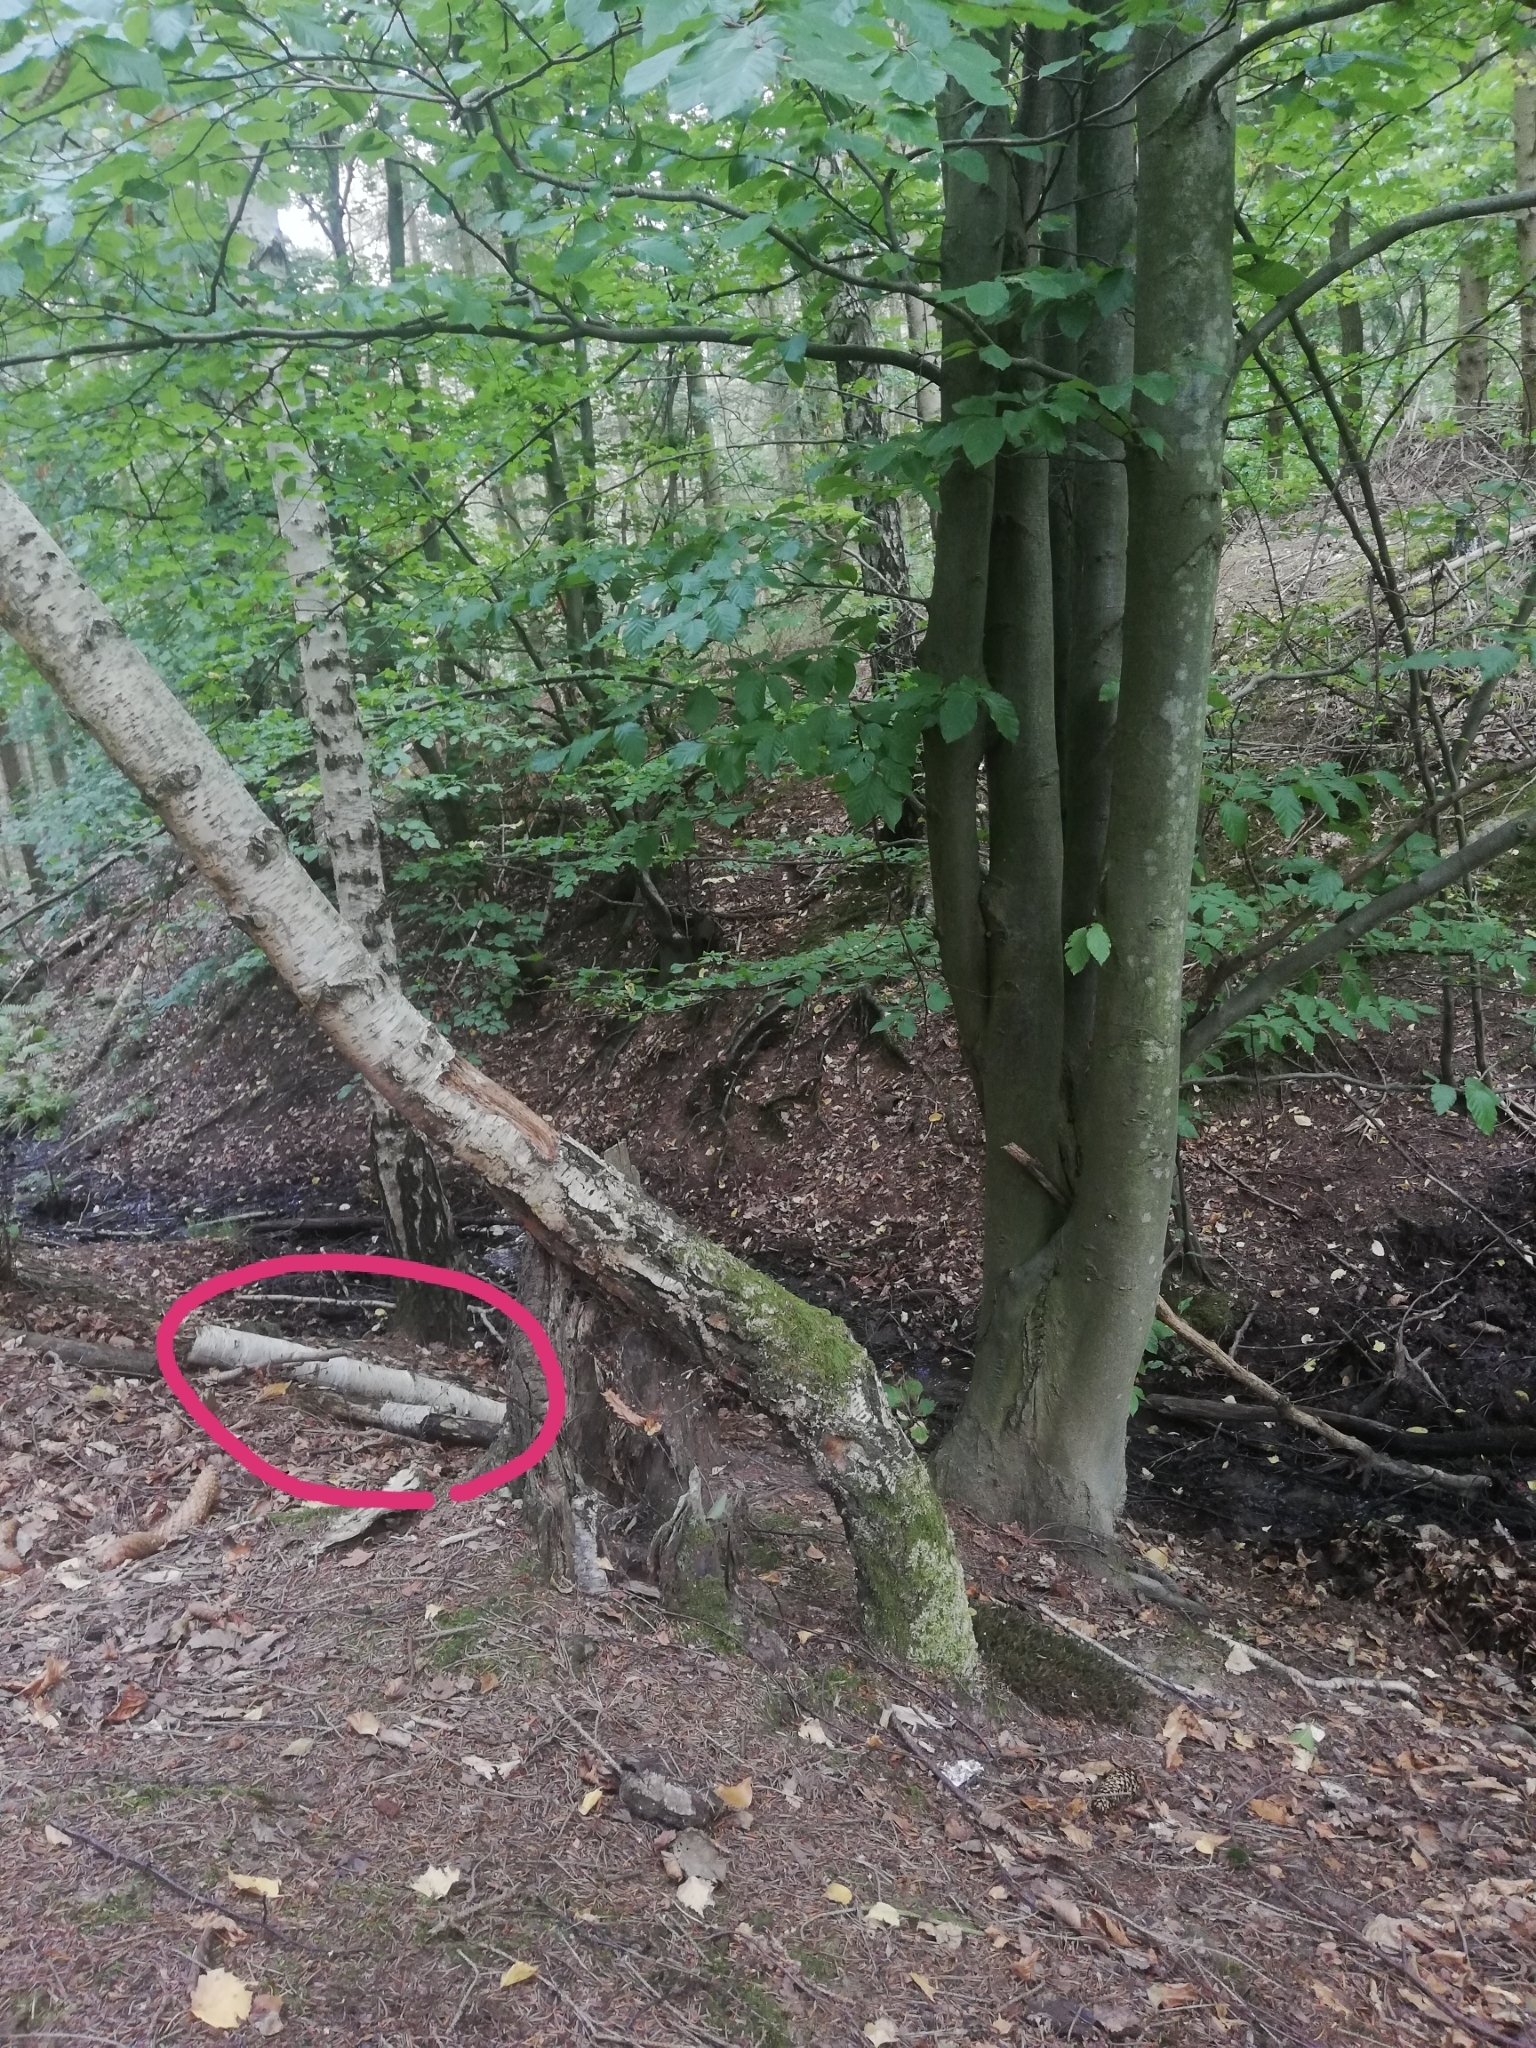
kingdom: Animalia
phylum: Chordata
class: Amphibia
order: Anura
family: Ranidae
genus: Rana
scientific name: Rana temporaria
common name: Common frog
